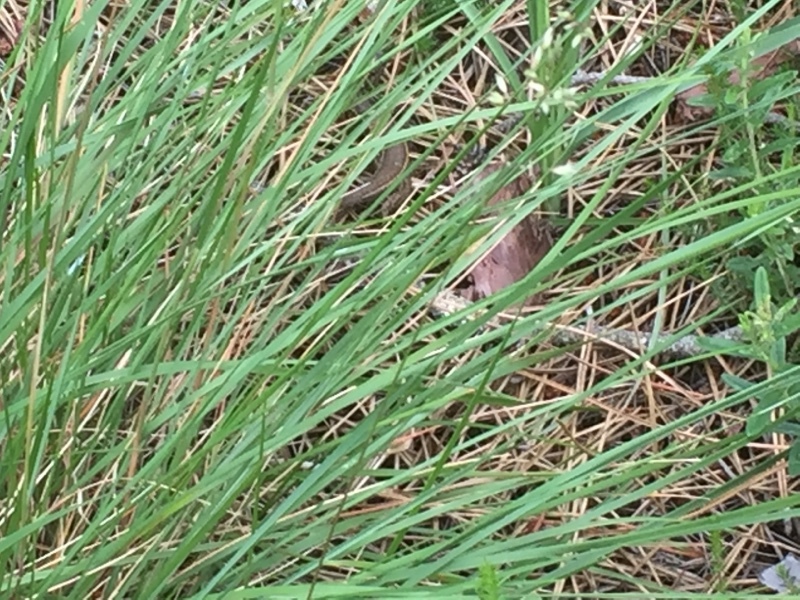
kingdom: Animalia
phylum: Chordata
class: Squamata
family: Lacertidae
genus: Psammodromus
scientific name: Psammodromus algirus
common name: Algerian psammodromus
